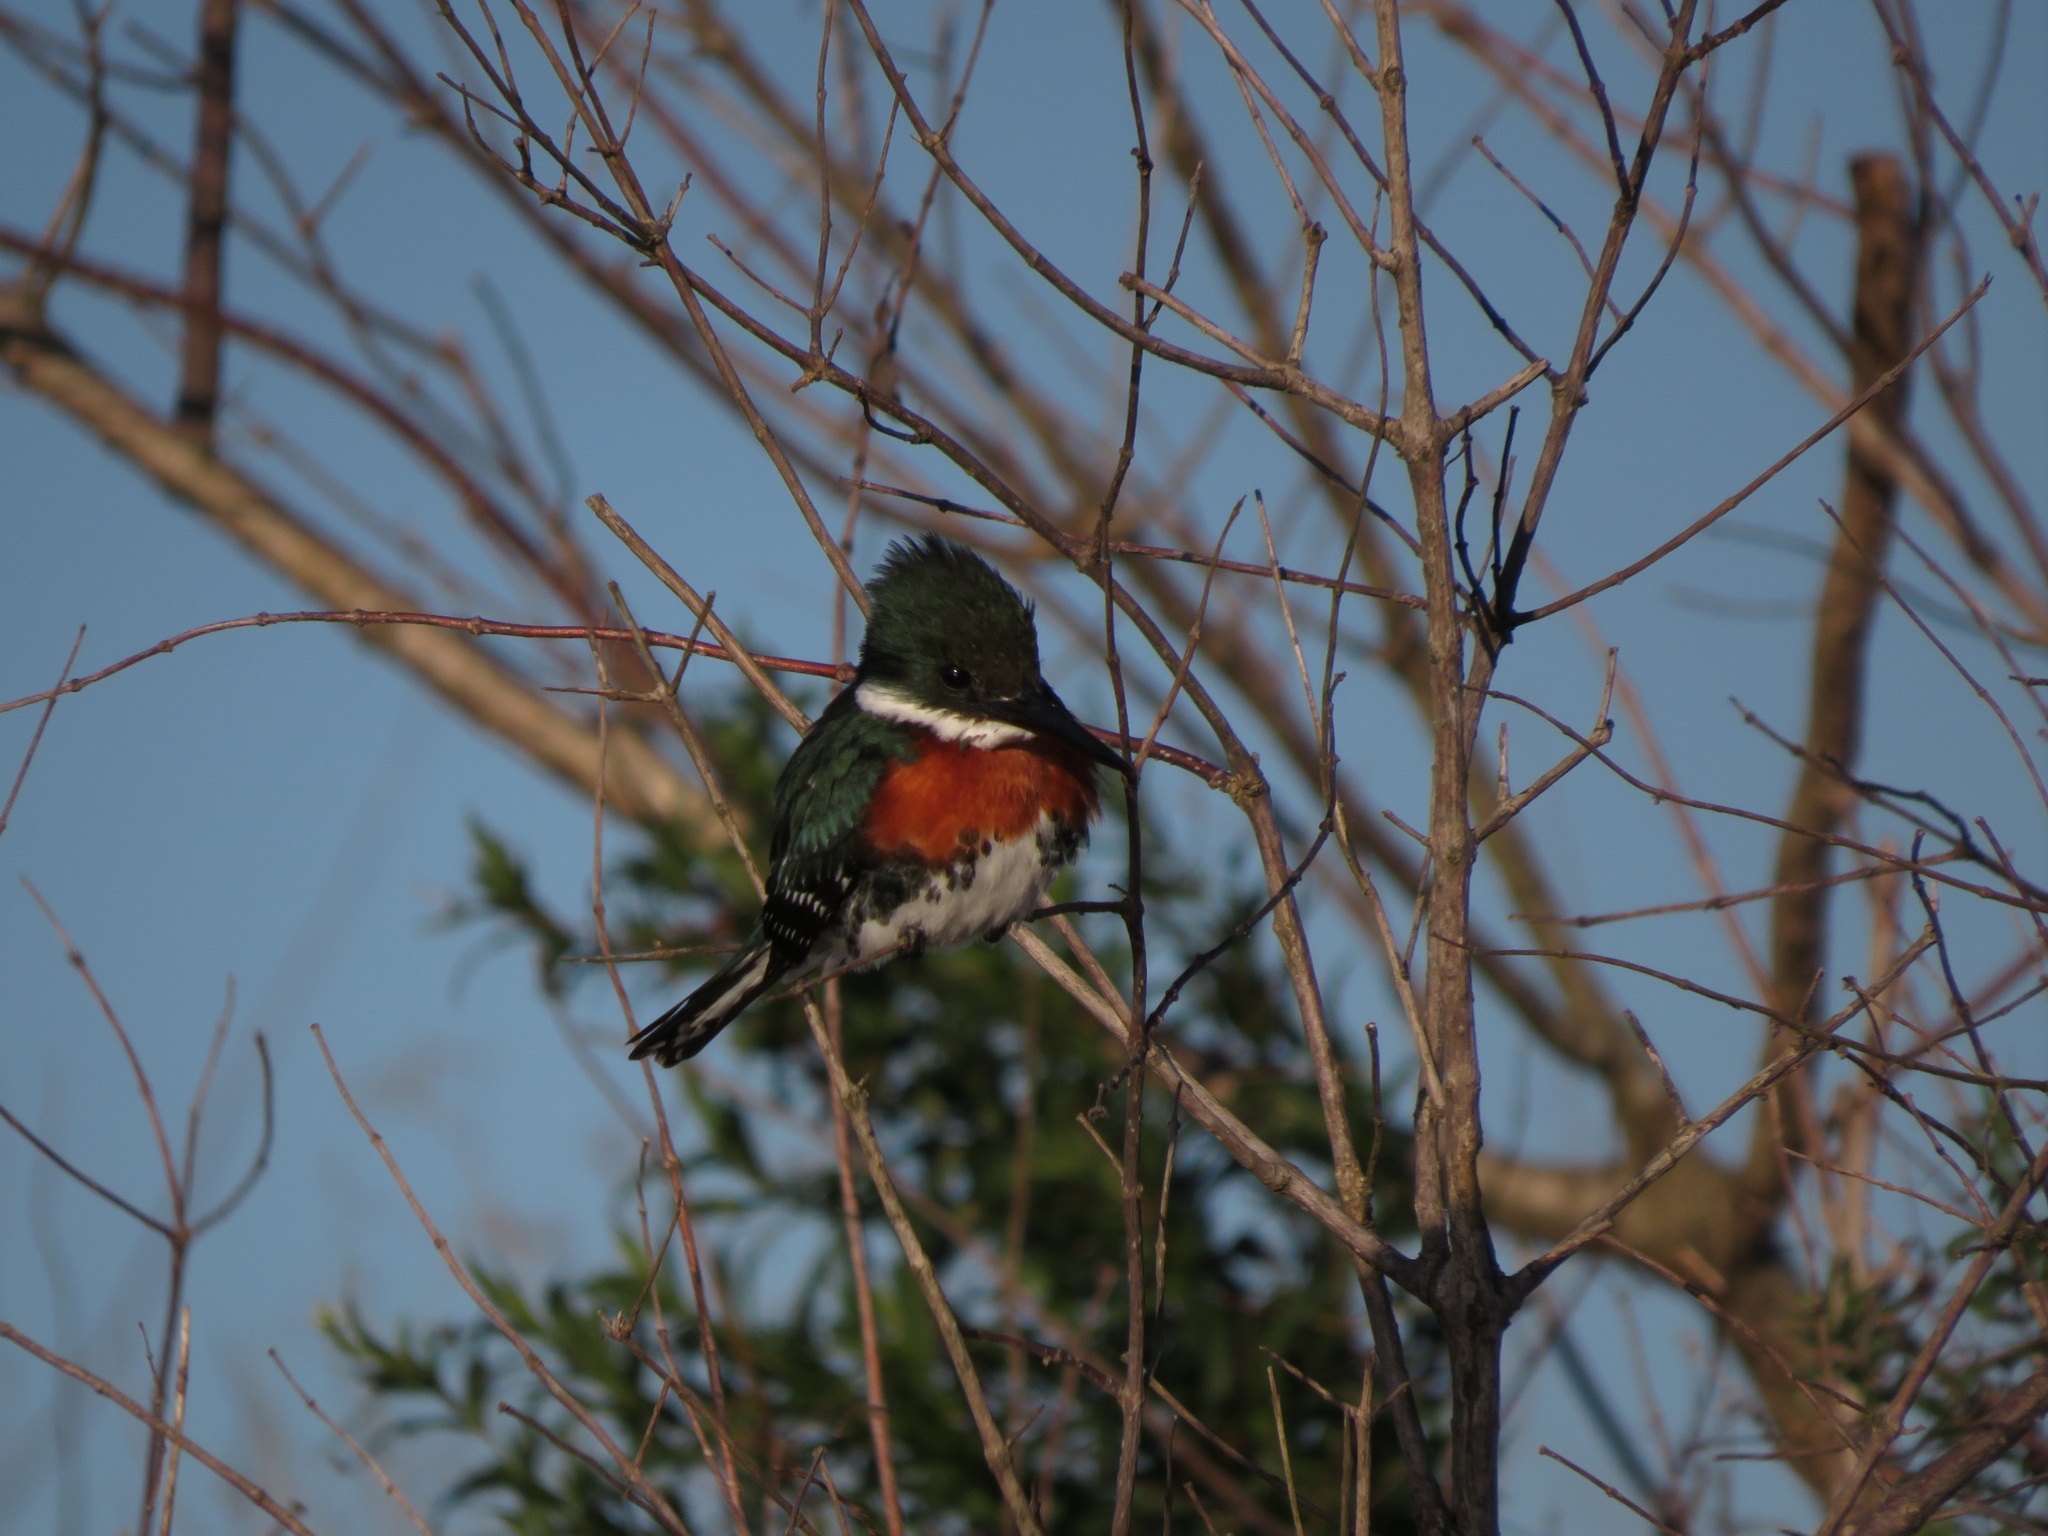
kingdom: Animalia
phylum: Chordata
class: Aves
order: Coraciiformes
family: Alcedinidae
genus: Chloroceryle
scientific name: Chloroceryle americana
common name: Green kingfisher
